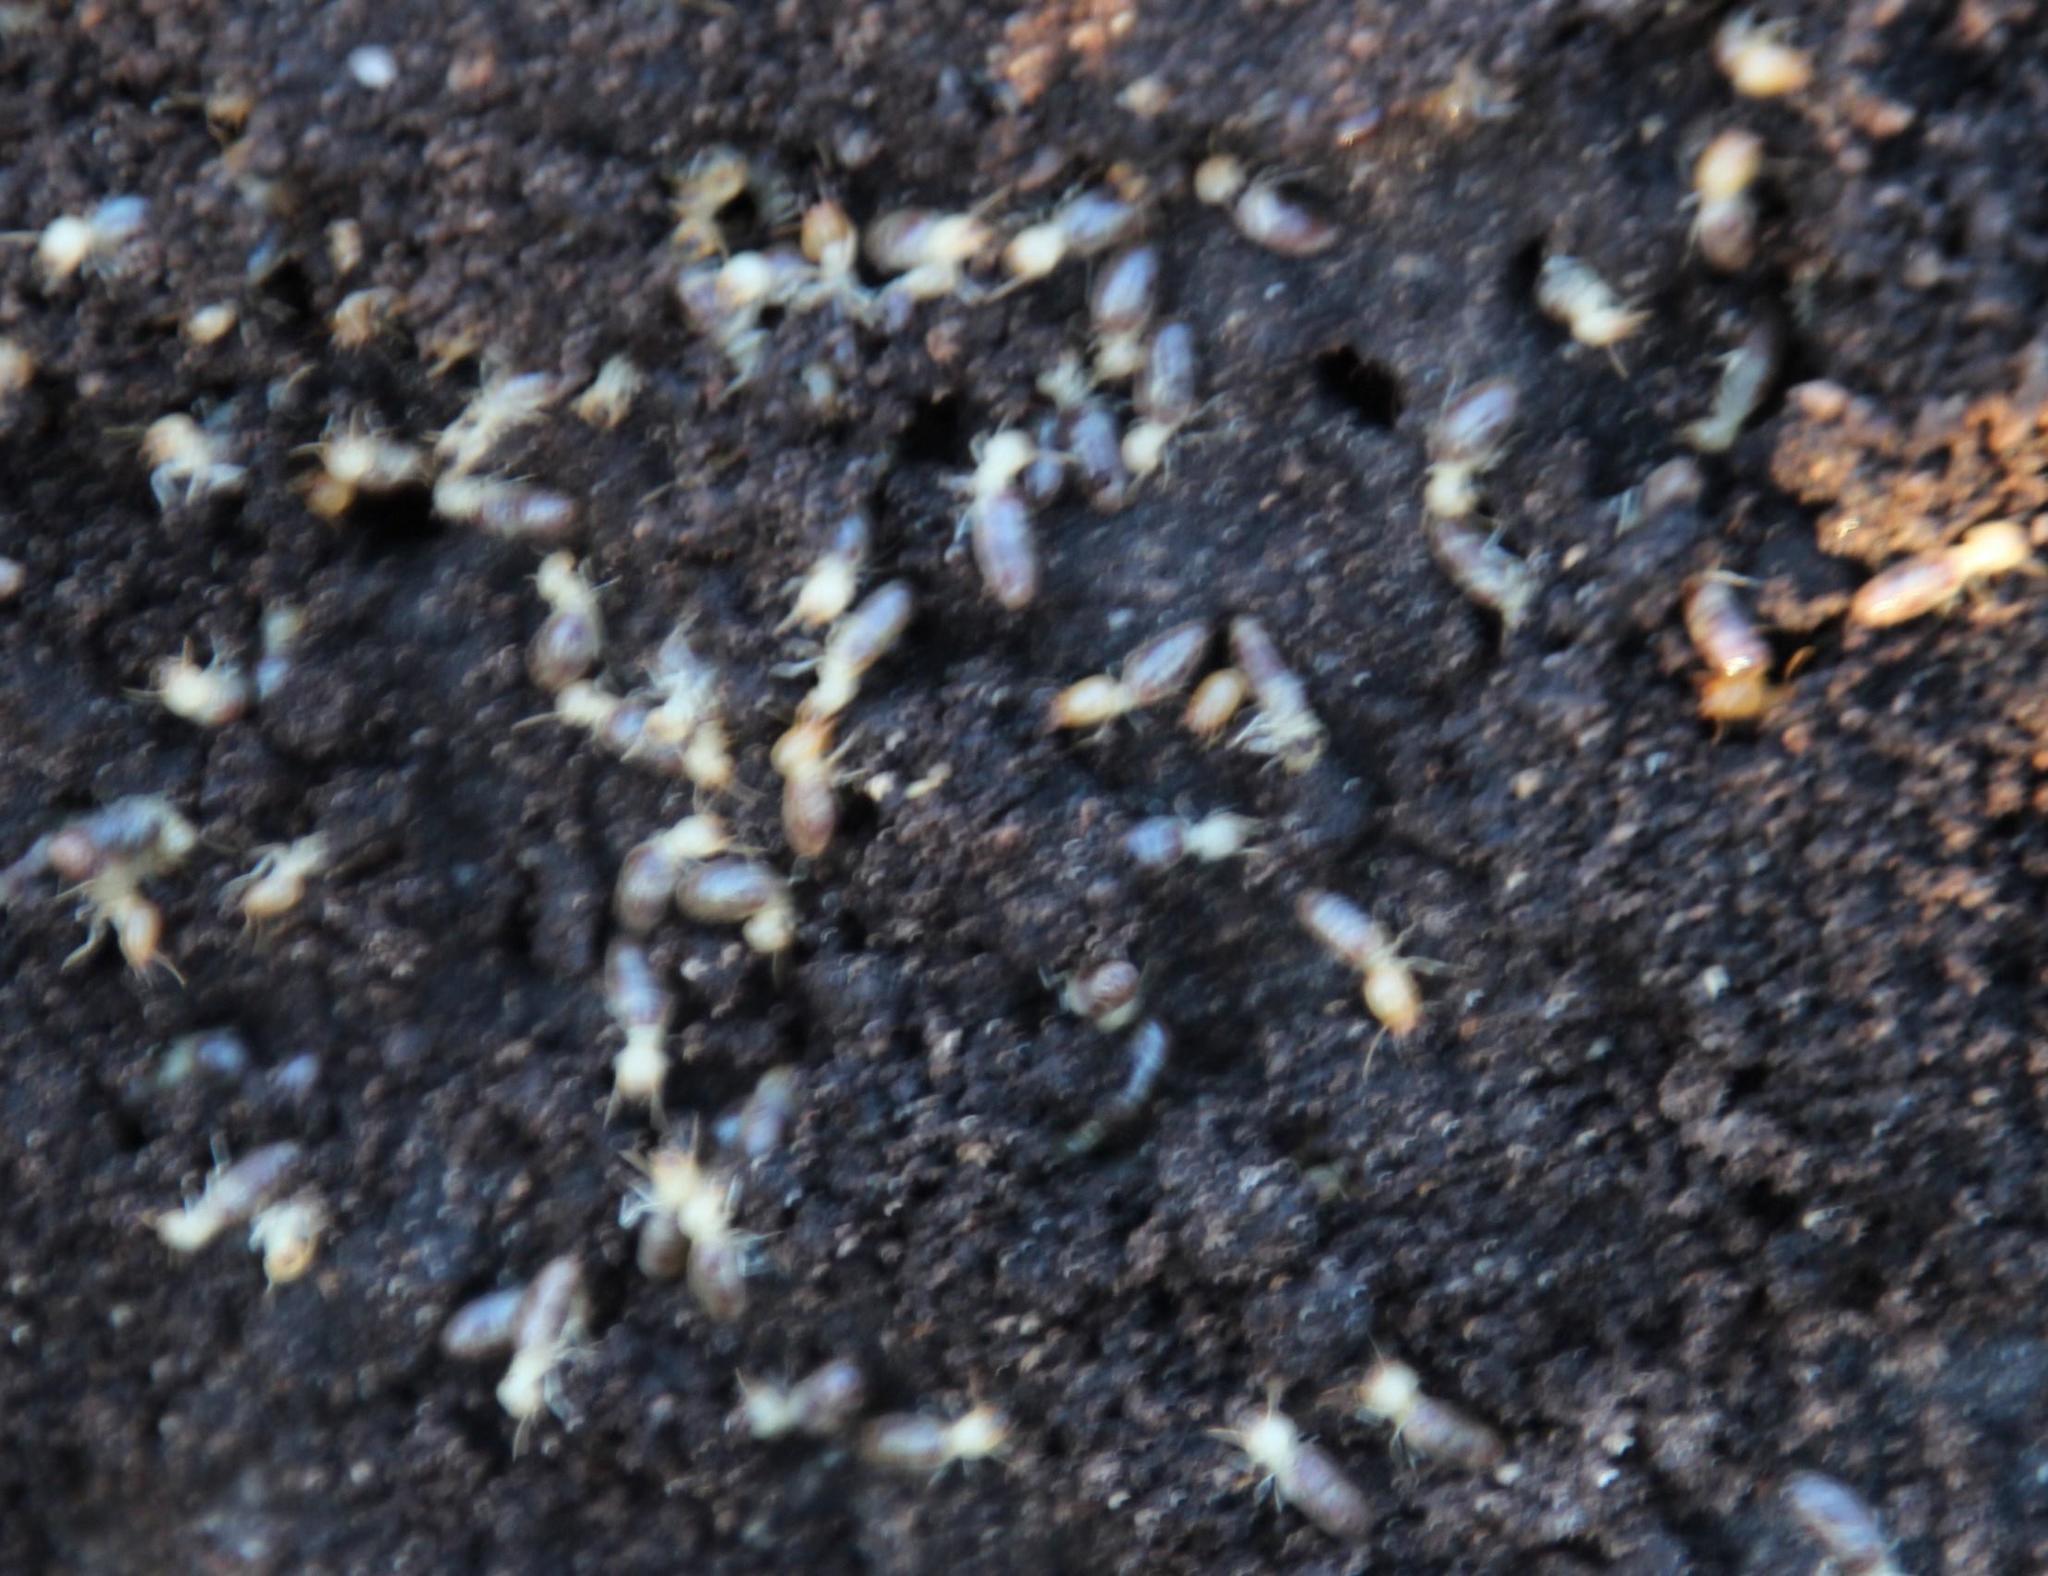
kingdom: Animalia
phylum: Arthropoda
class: Insecta
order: Blattodea
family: Termitidae
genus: Amitermes
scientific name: Amitermes hastatus
